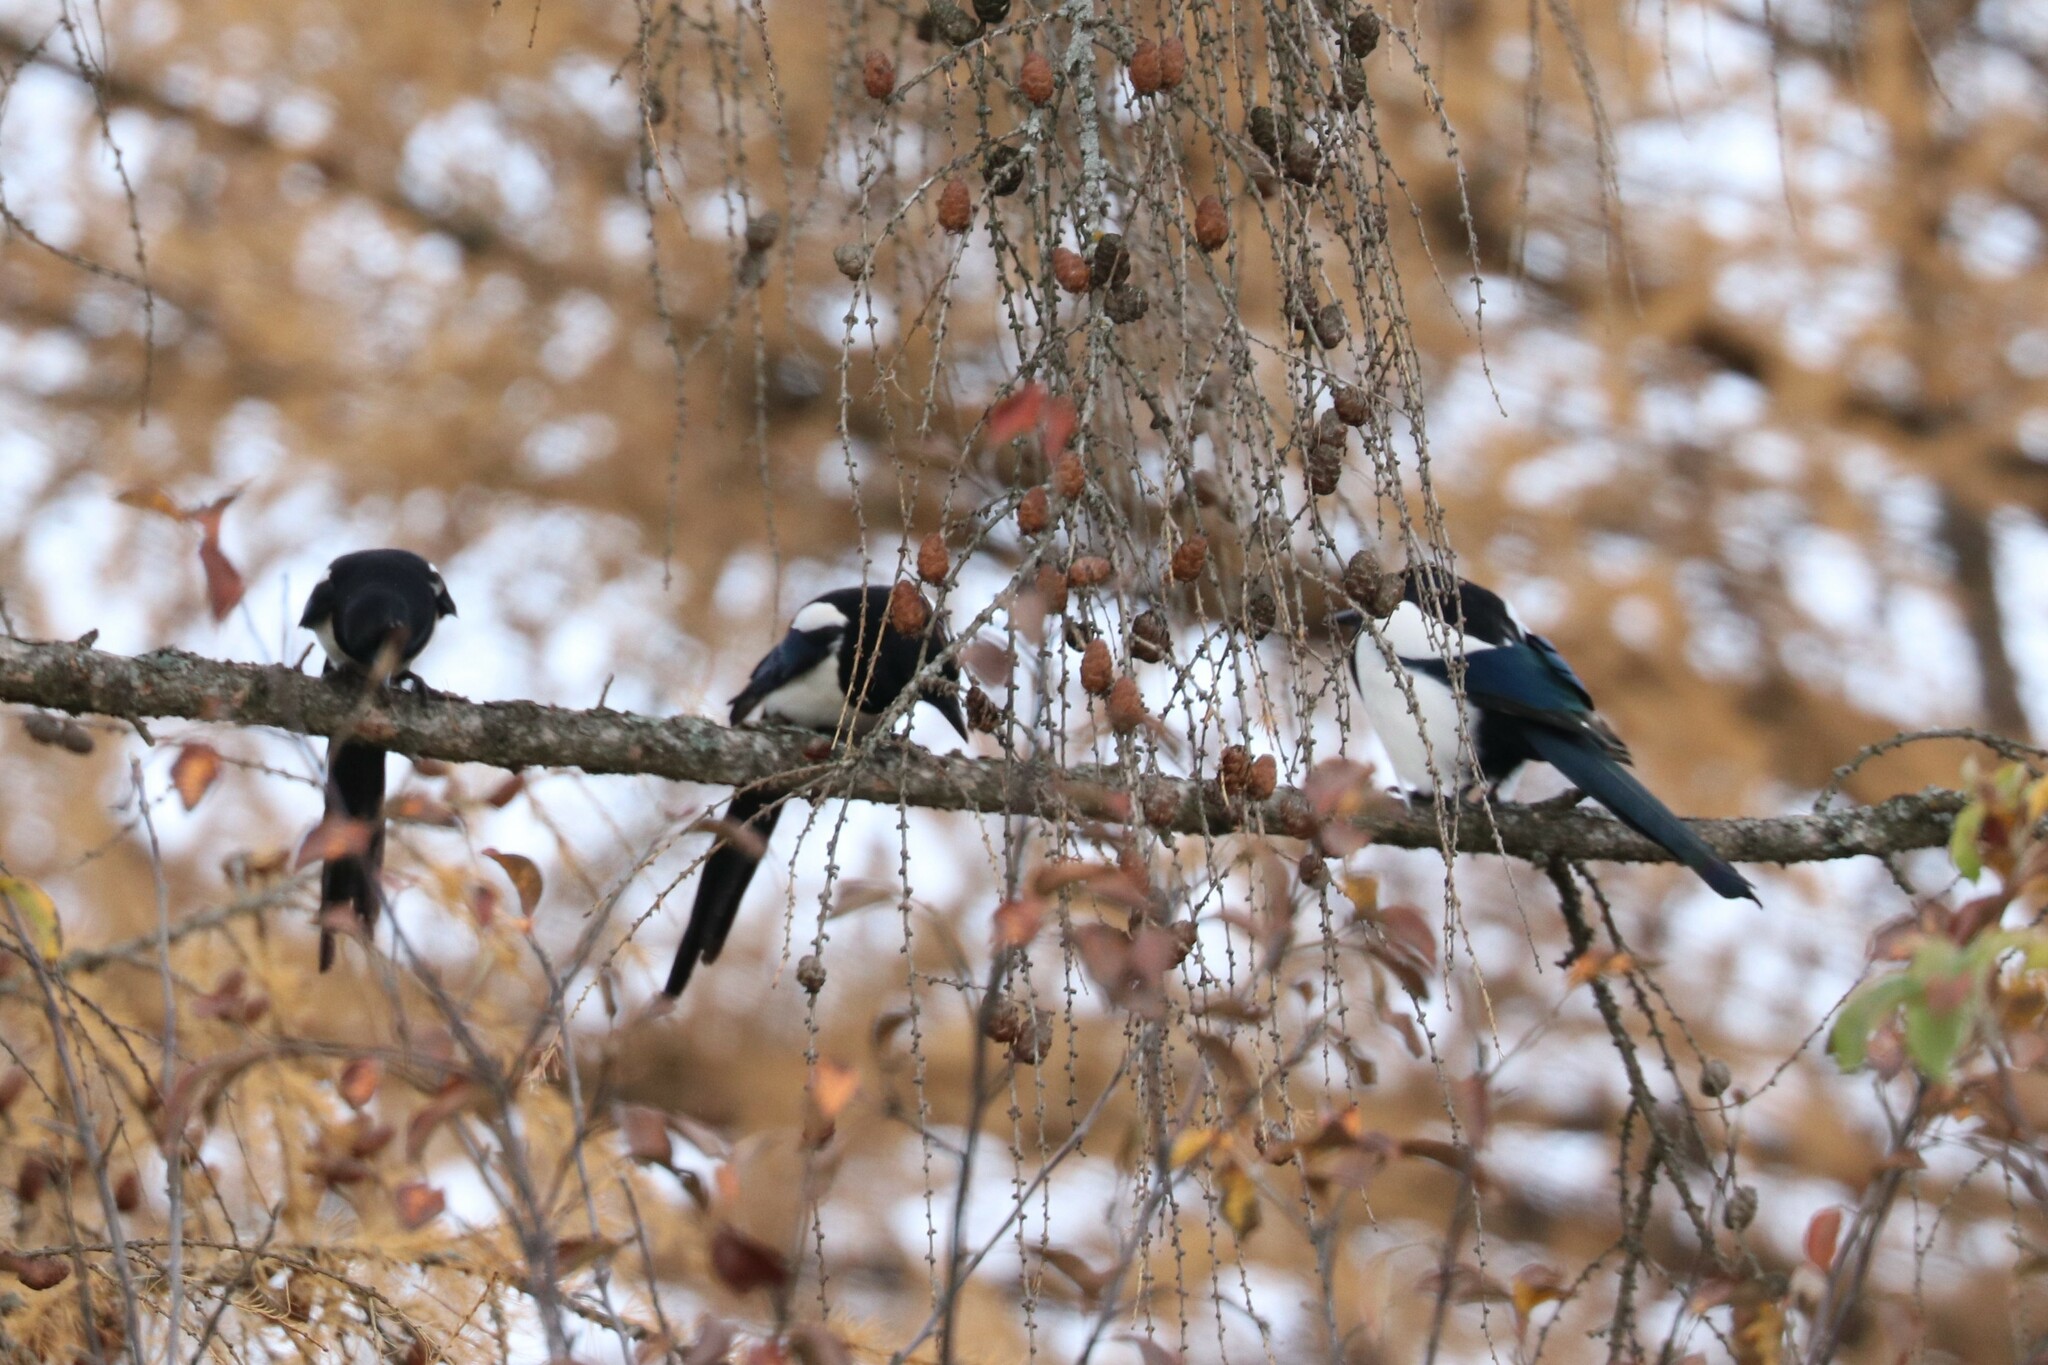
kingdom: Animalia
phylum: Chordata
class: Aves
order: Passeriformes
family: Corvidae
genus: Pica
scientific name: Pica pica
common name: Eurasian magpie
